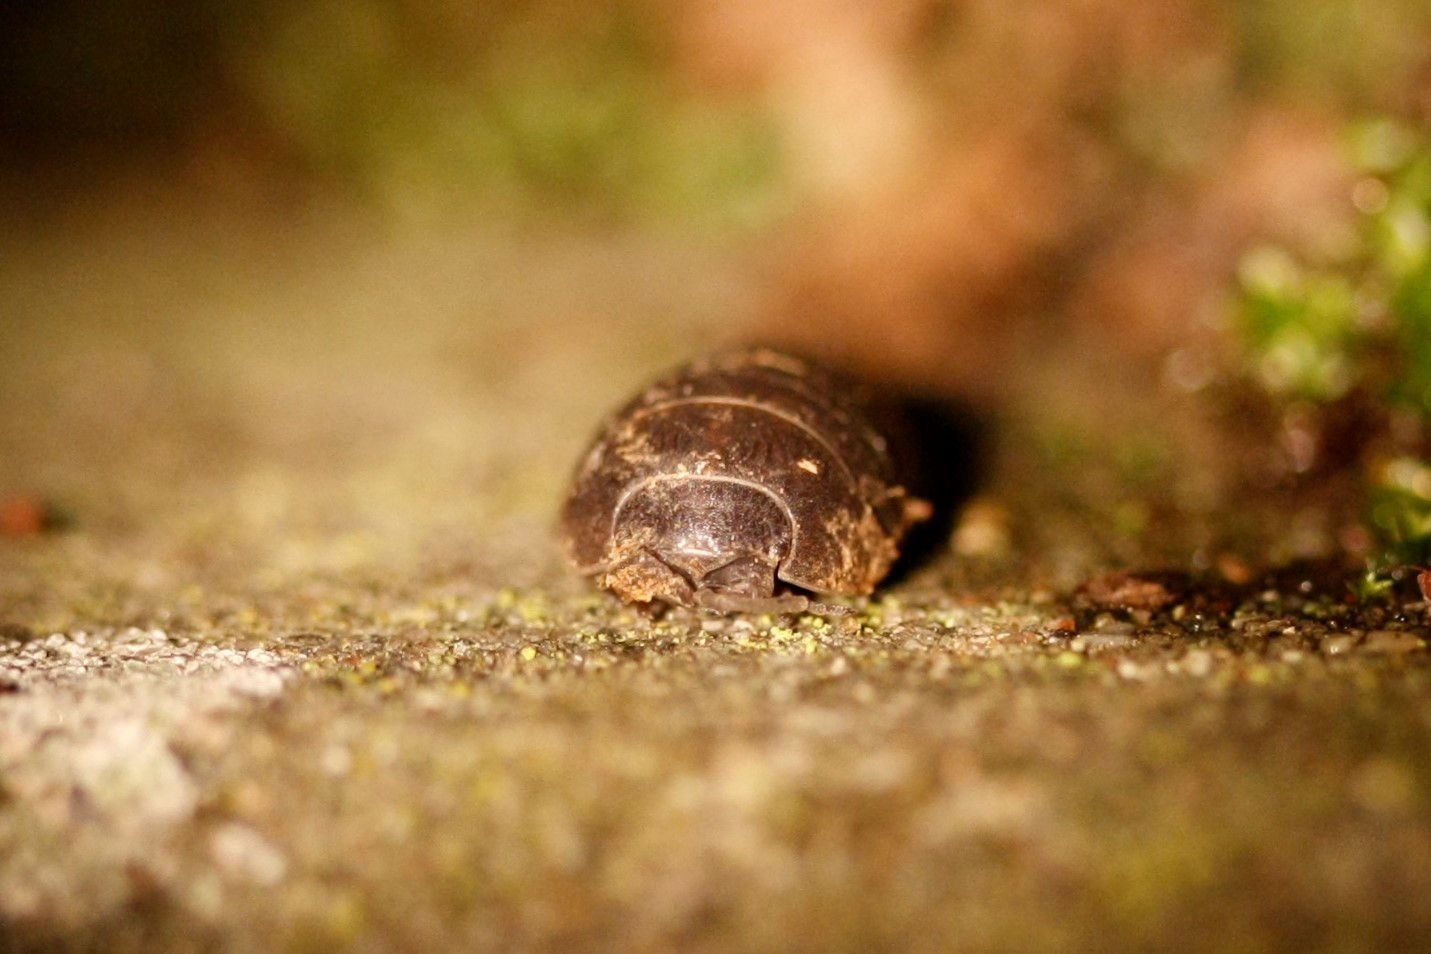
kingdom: Animalia
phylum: Arthropoda
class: Malacostraca
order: Isopoda
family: Armadillidiidae
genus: Armadillidium
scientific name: Armadillidium vulgare
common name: Common pill woodlouse
